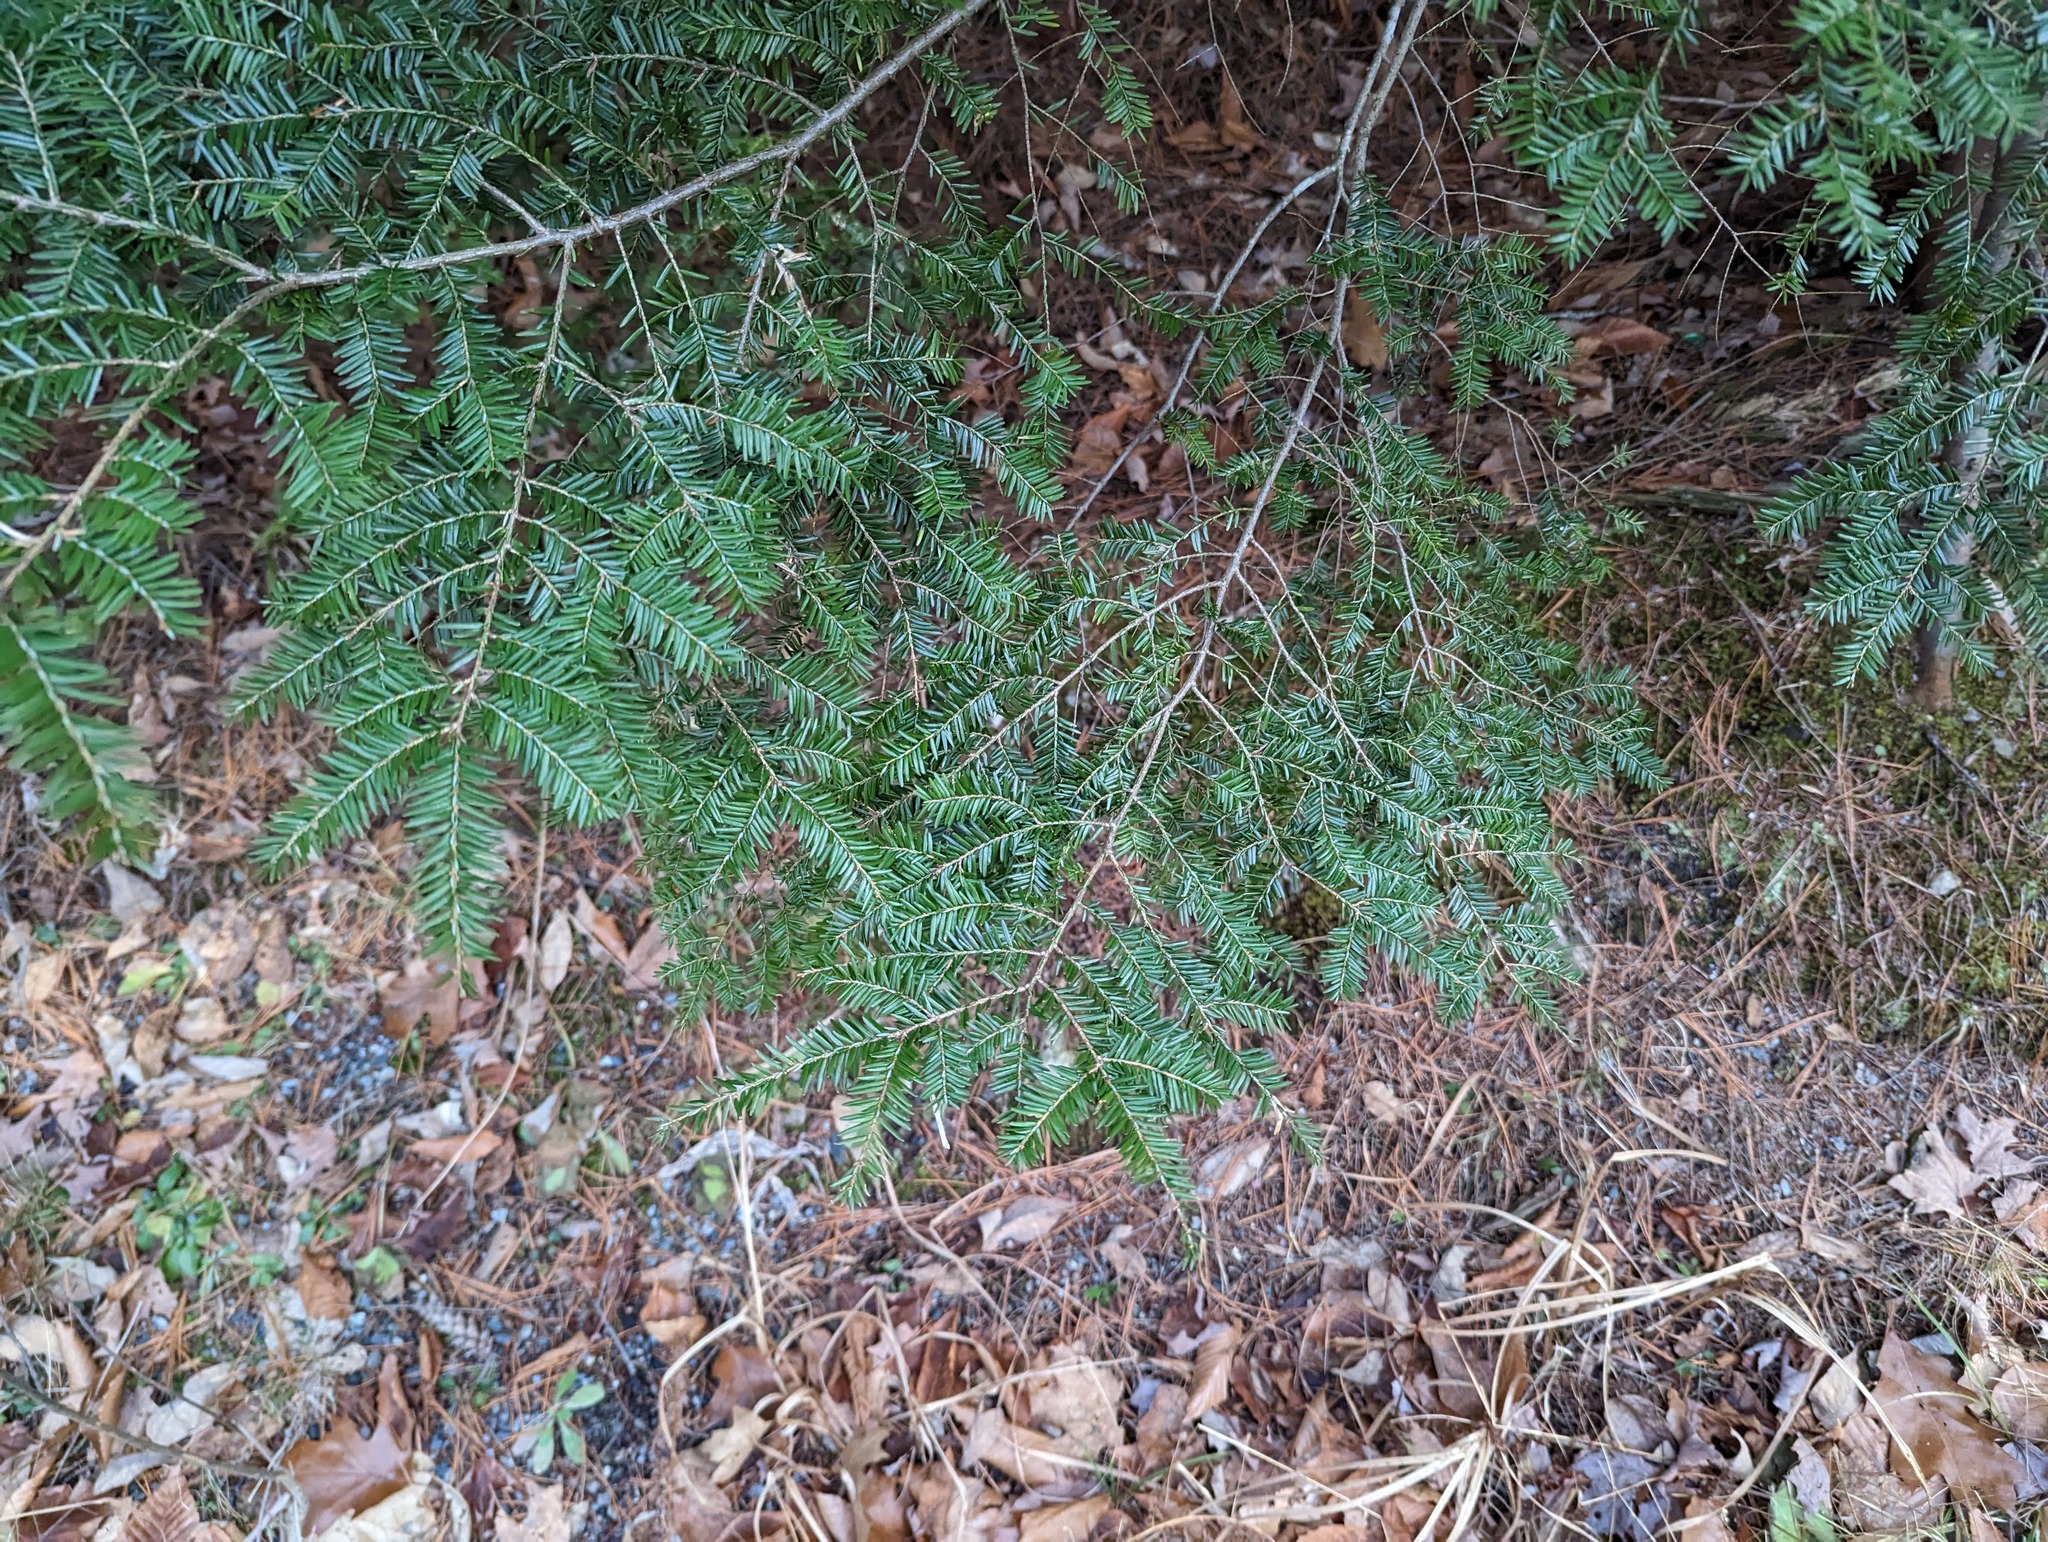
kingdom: Plantae
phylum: Tracheophyta
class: Pinopsida
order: Pinales
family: Pinaceae
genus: Tsuga
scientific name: Tsuga canadensis
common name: Eastern hemlock
